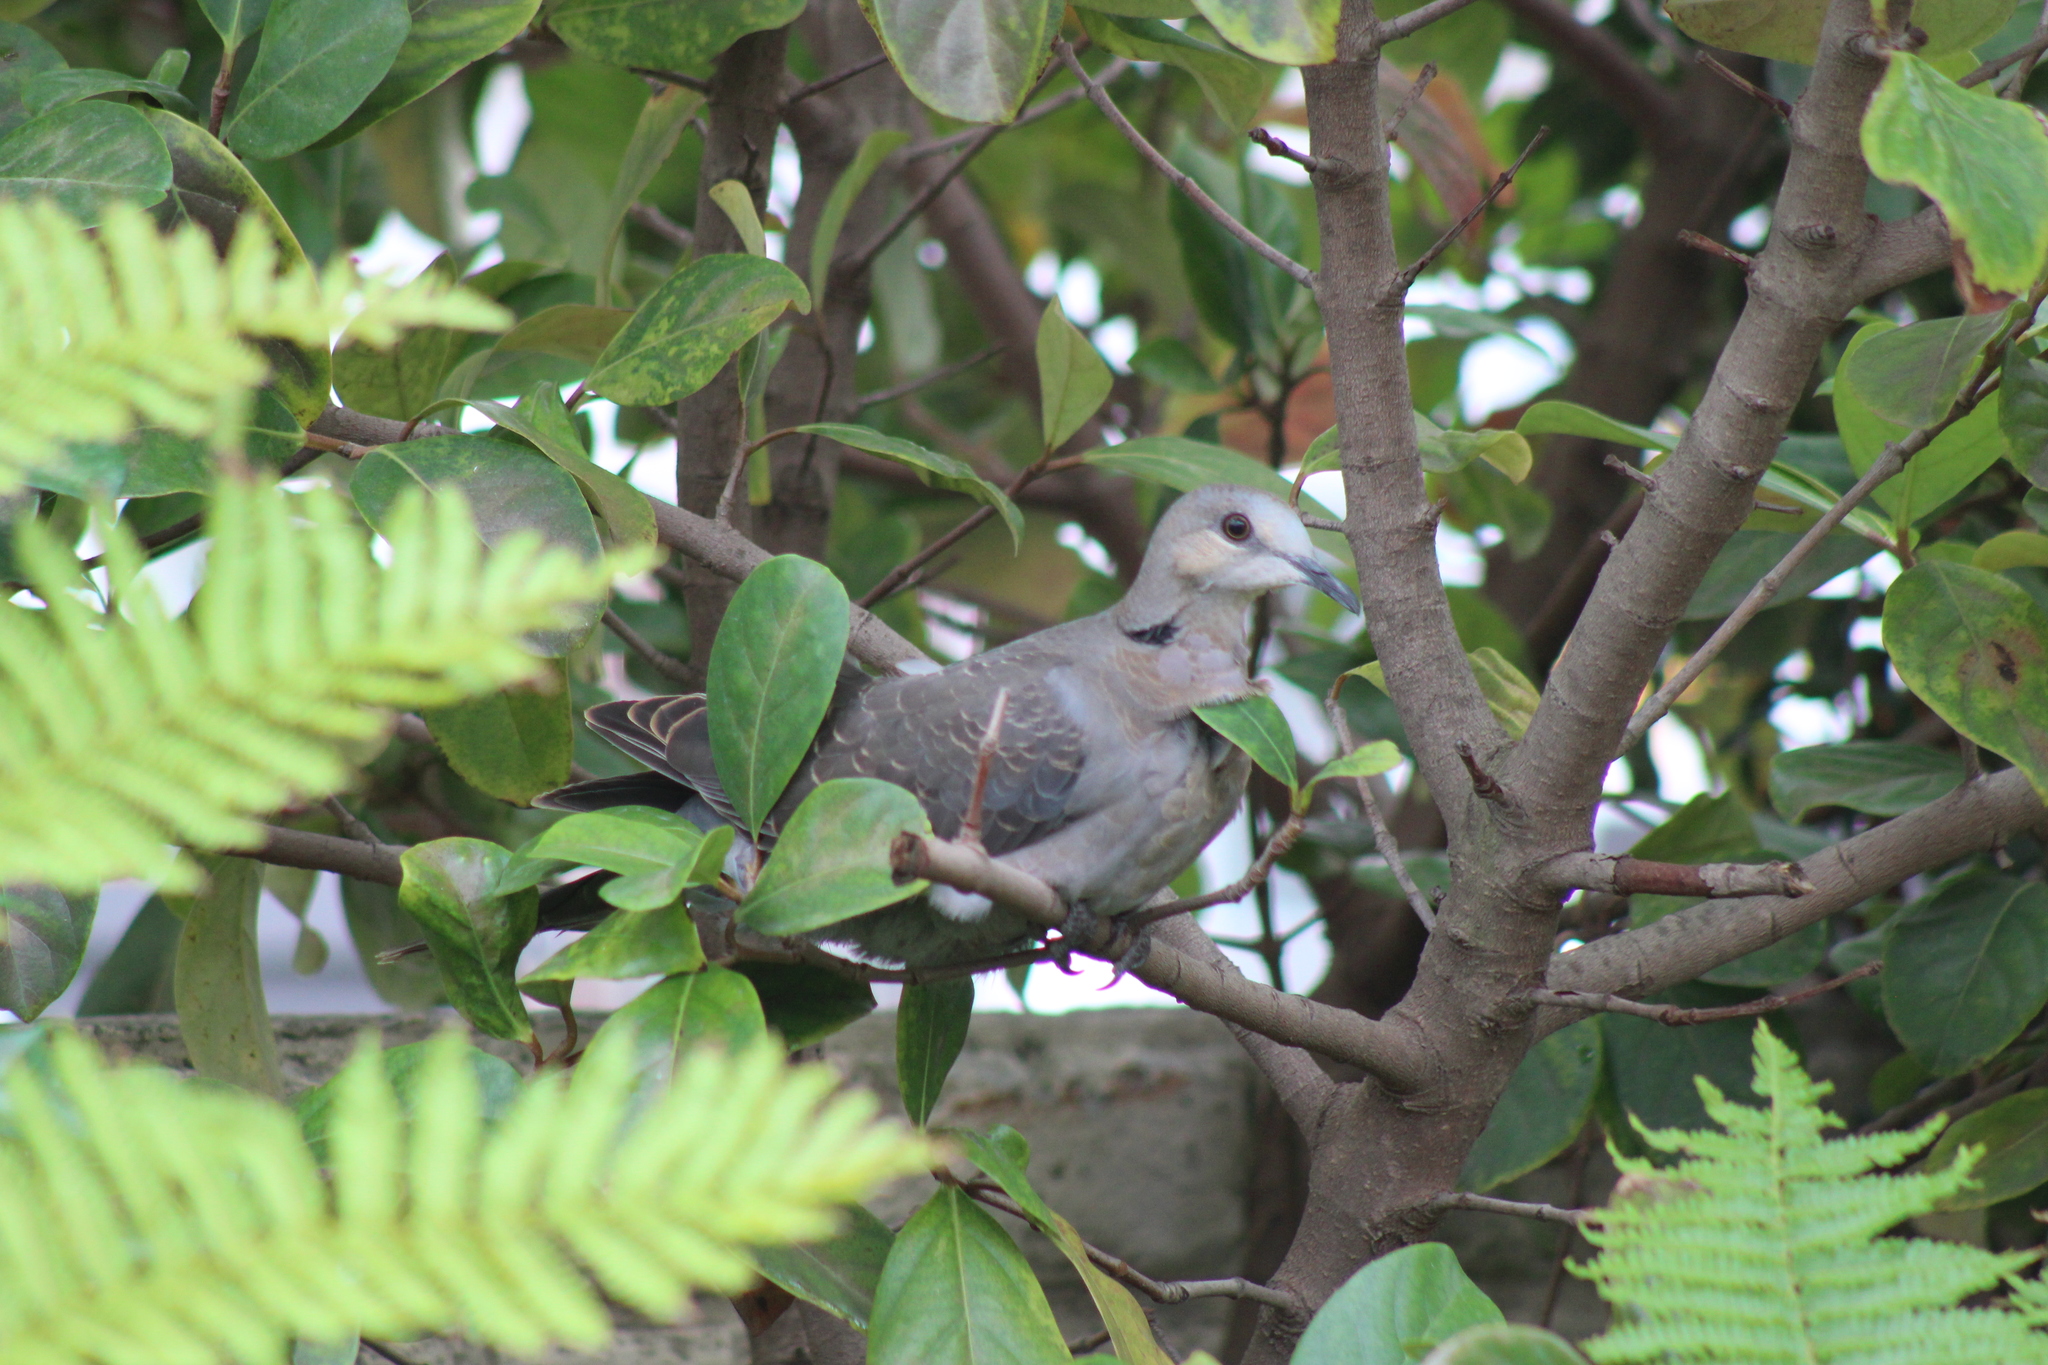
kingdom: Animalia
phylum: Chordata
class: Aves
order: Columbiformes
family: Columbidae
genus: Streptopelia
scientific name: Streptopelia semitorquata
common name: Red-eyed dove
